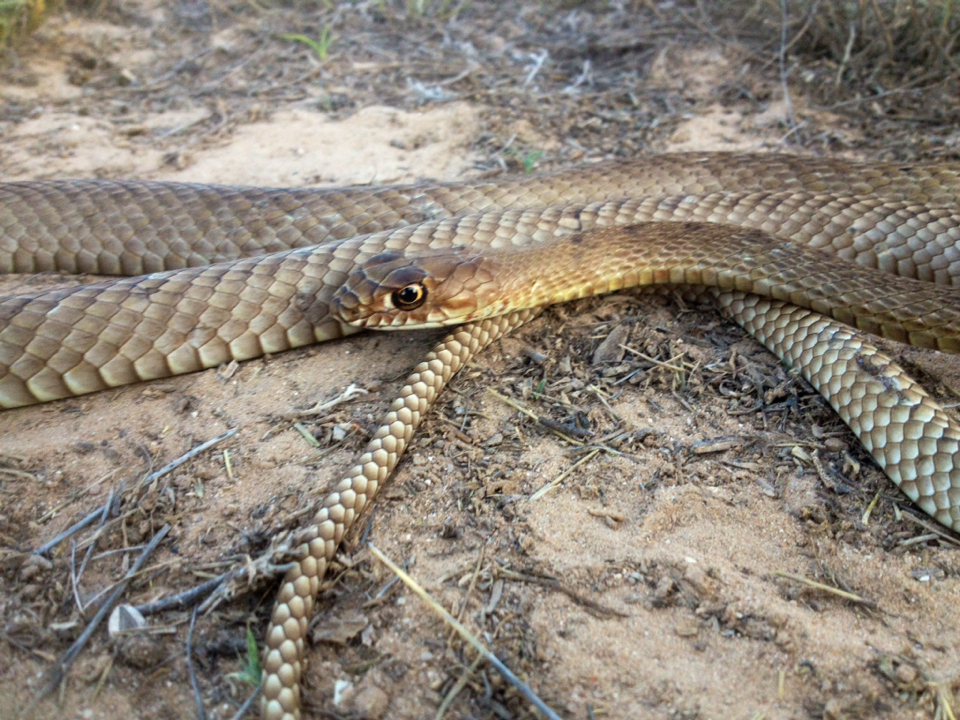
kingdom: Animalia
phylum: Chordata
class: Squamata
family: Colubridae
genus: Masticophis
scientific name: Masticophis flagellum
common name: Coachwhip
